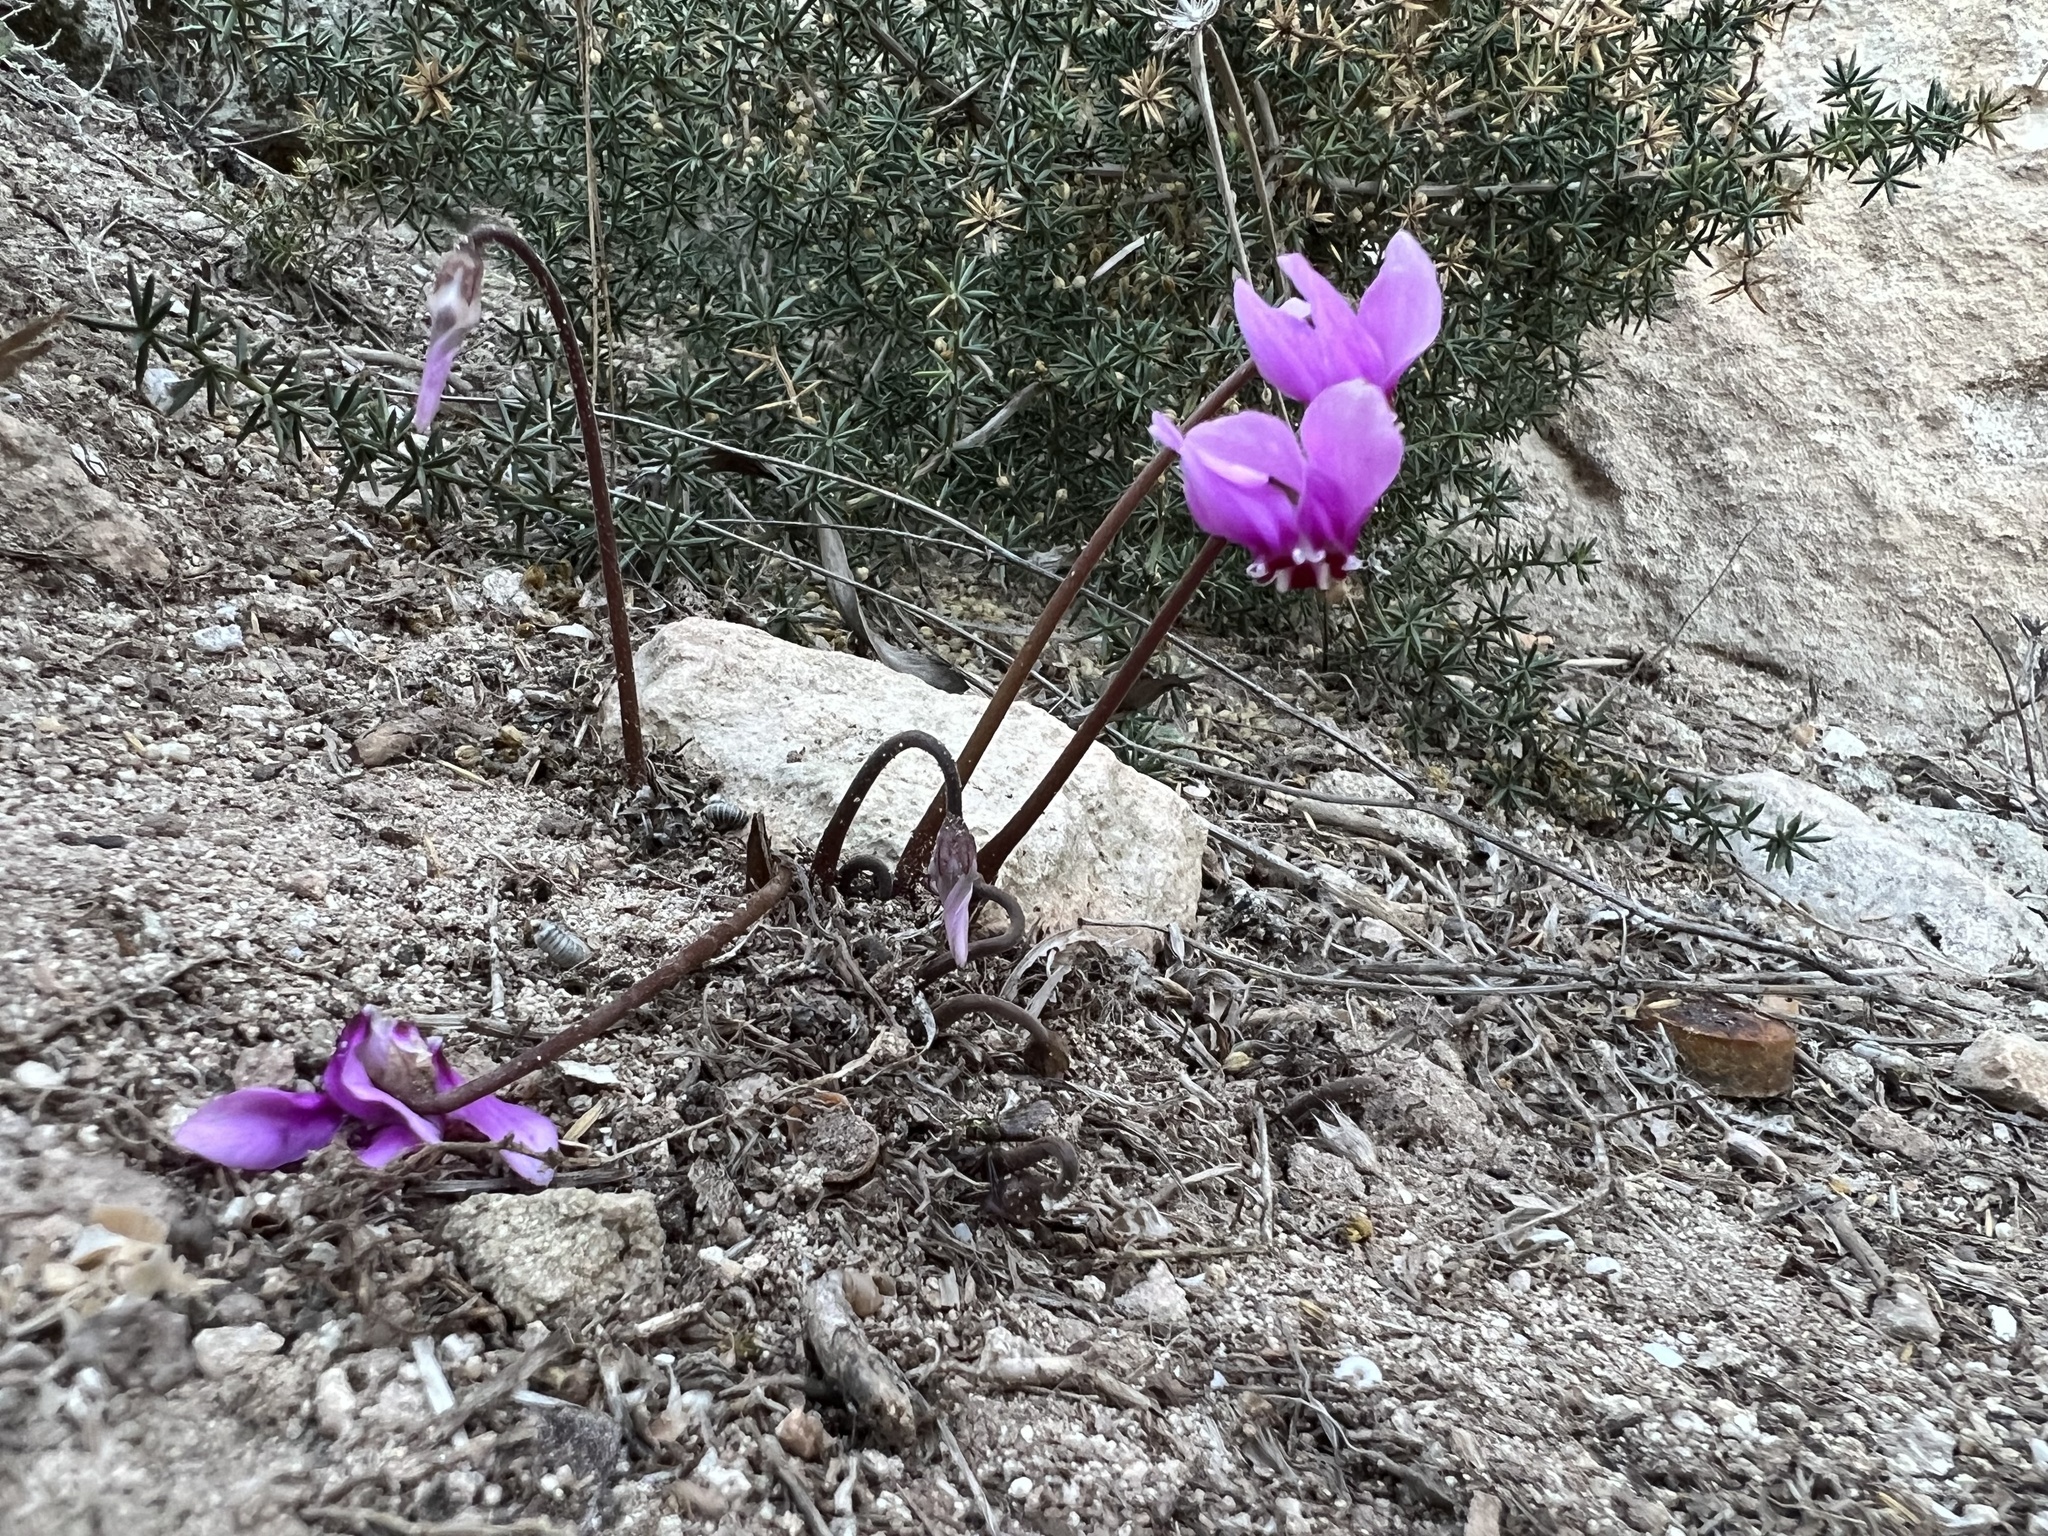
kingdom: Plantae
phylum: Tracheophyta
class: Magnoliopsida
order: Ericales
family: Primulaceae
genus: Cyclamen
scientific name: Cyclamen hederifolium
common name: Sowbread
